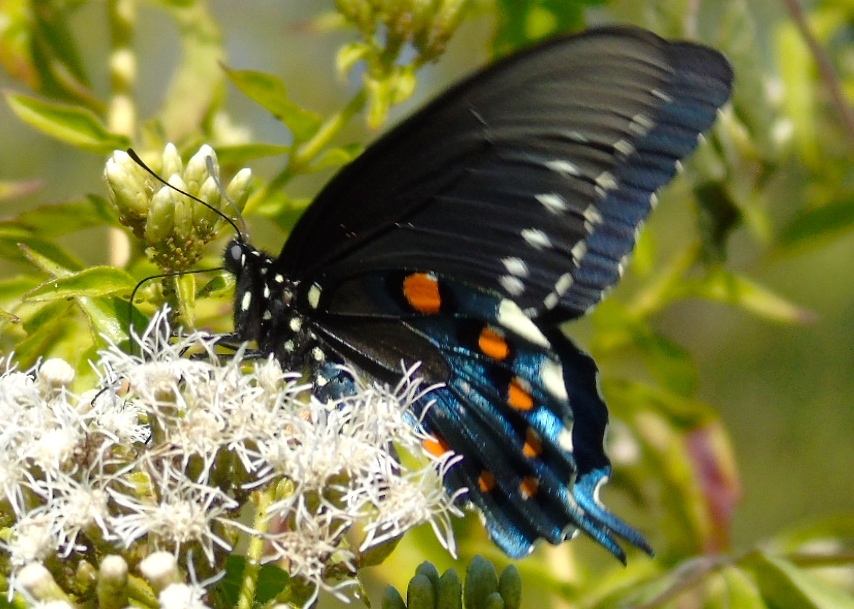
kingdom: Animalia
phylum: Arthropoda
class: Insecta
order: Lepidoptera
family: Papilionidae
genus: Battus
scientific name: Battus philenor
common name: Pipevine swallowtail
